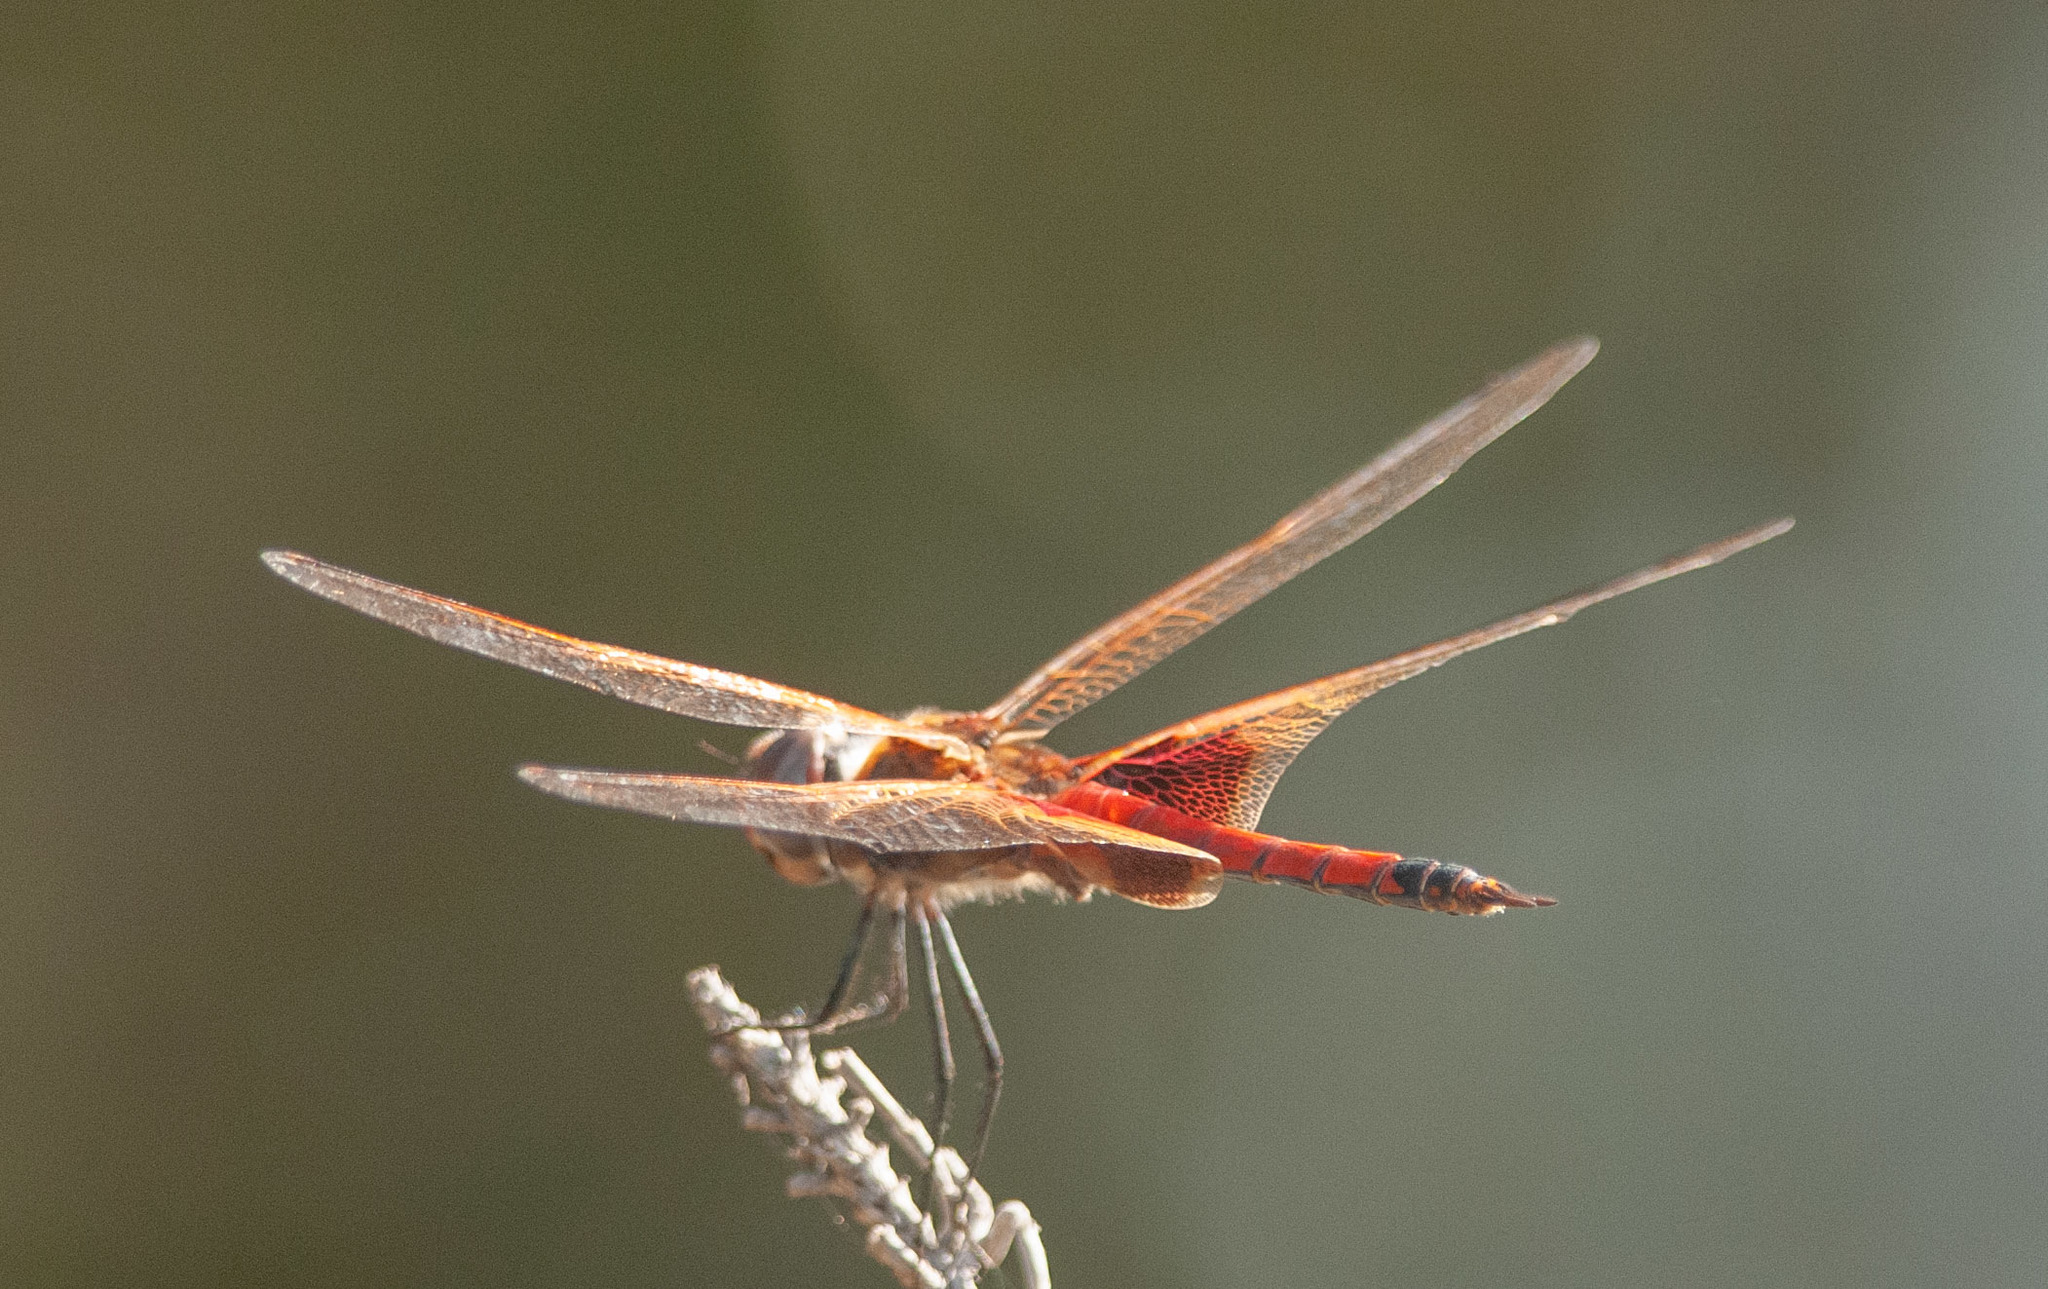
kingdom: Animalia
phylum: Arthropoda
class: Insecta
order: Odonata
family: Libellulidae
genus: Tramea
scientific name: Tramea loewii
